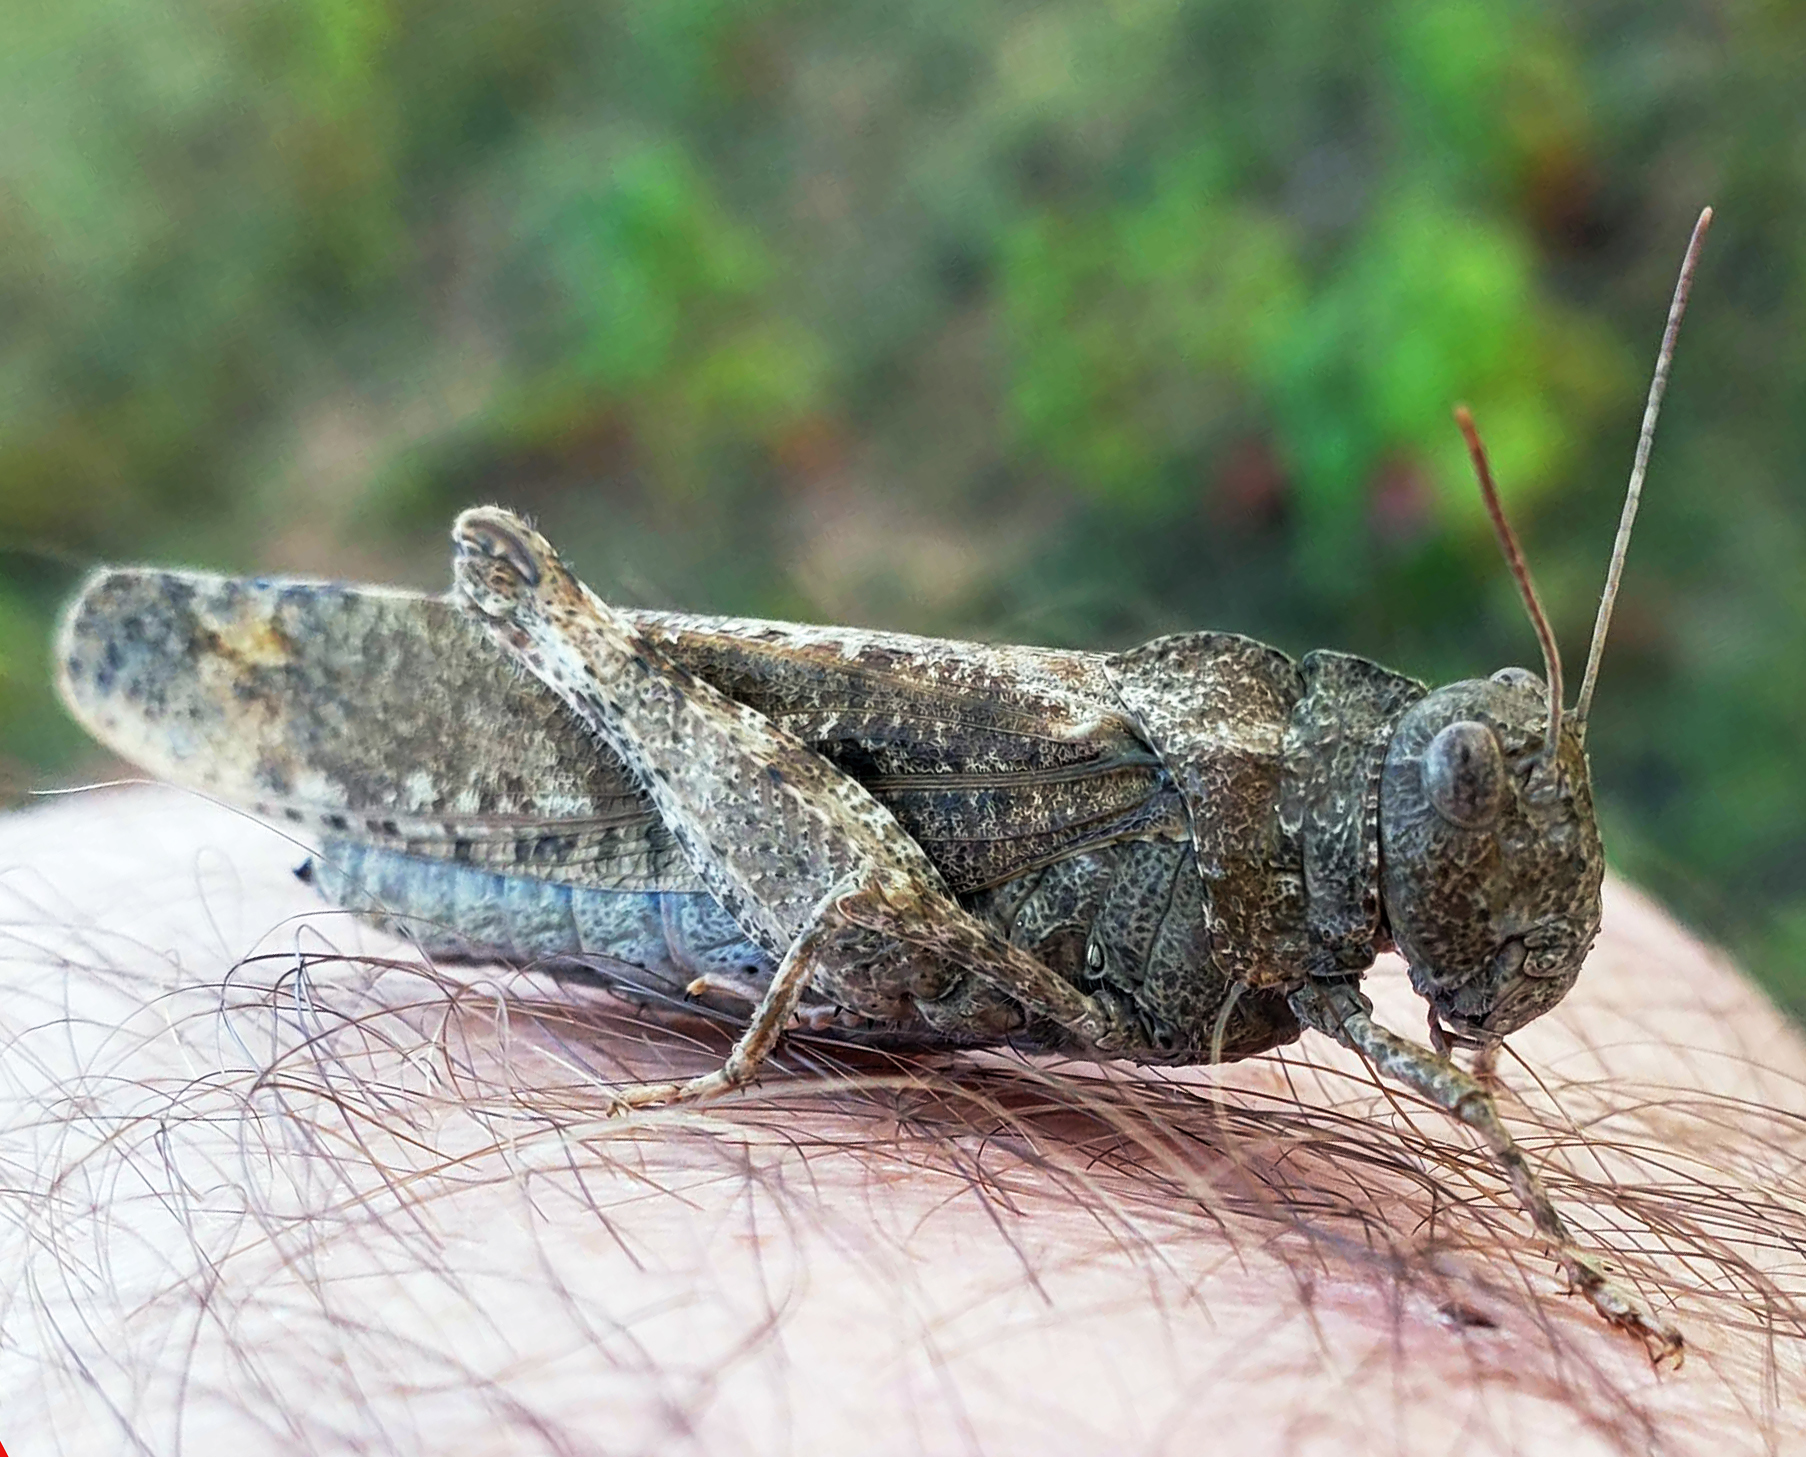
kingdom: Animalia
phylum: Arthropoda
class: Insecta
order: Orthoptera
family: Acrididae
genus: Dissosteira
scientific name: Dissosteira carolina
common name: Carolina grasshopper
